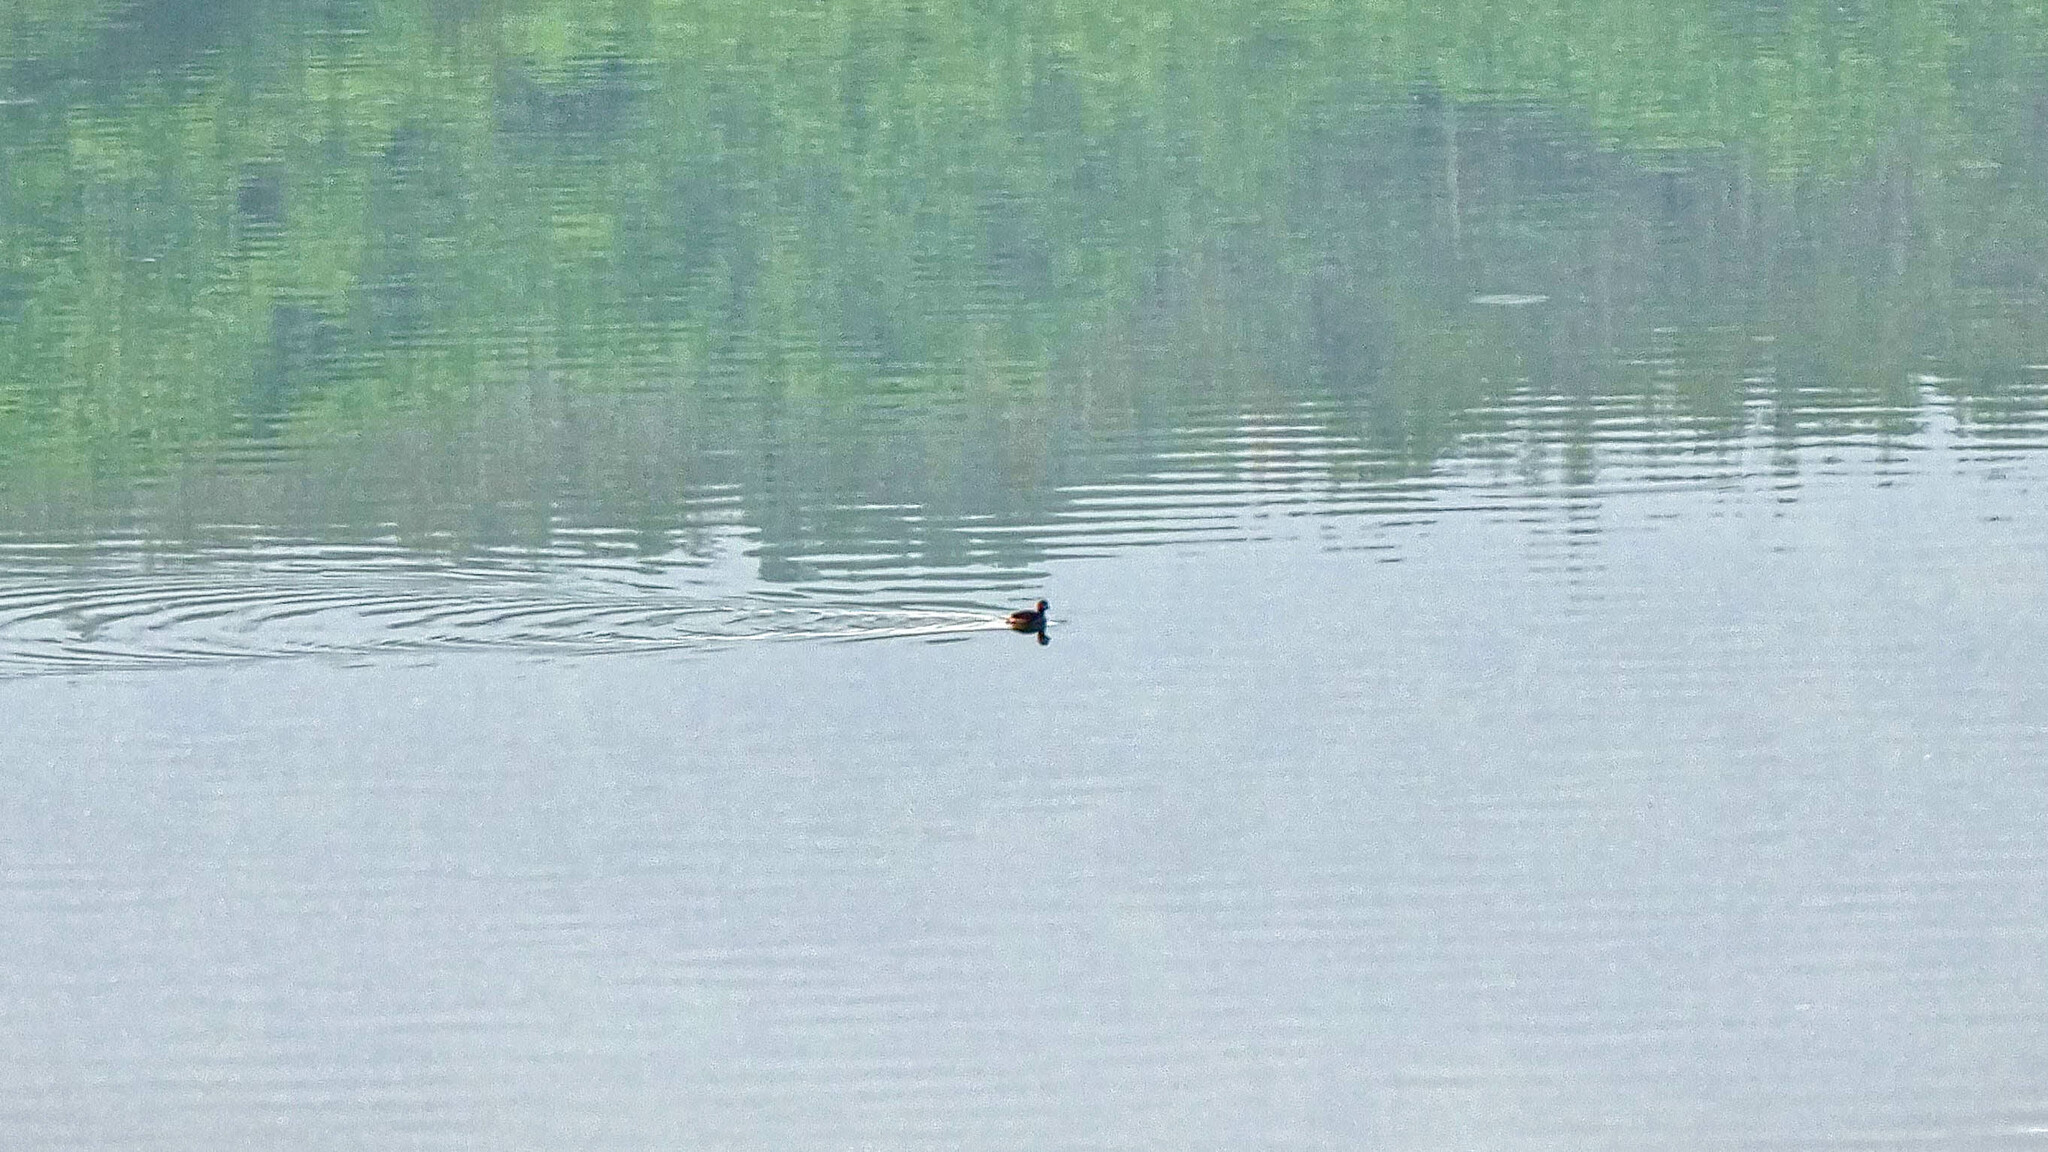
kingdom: Animalia
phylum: Chordata
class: Aves
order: Podicipediformes
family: Podicipedidae
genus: Tachybaptus
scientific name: Tachybaptus ruficollis
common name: Little grebe
